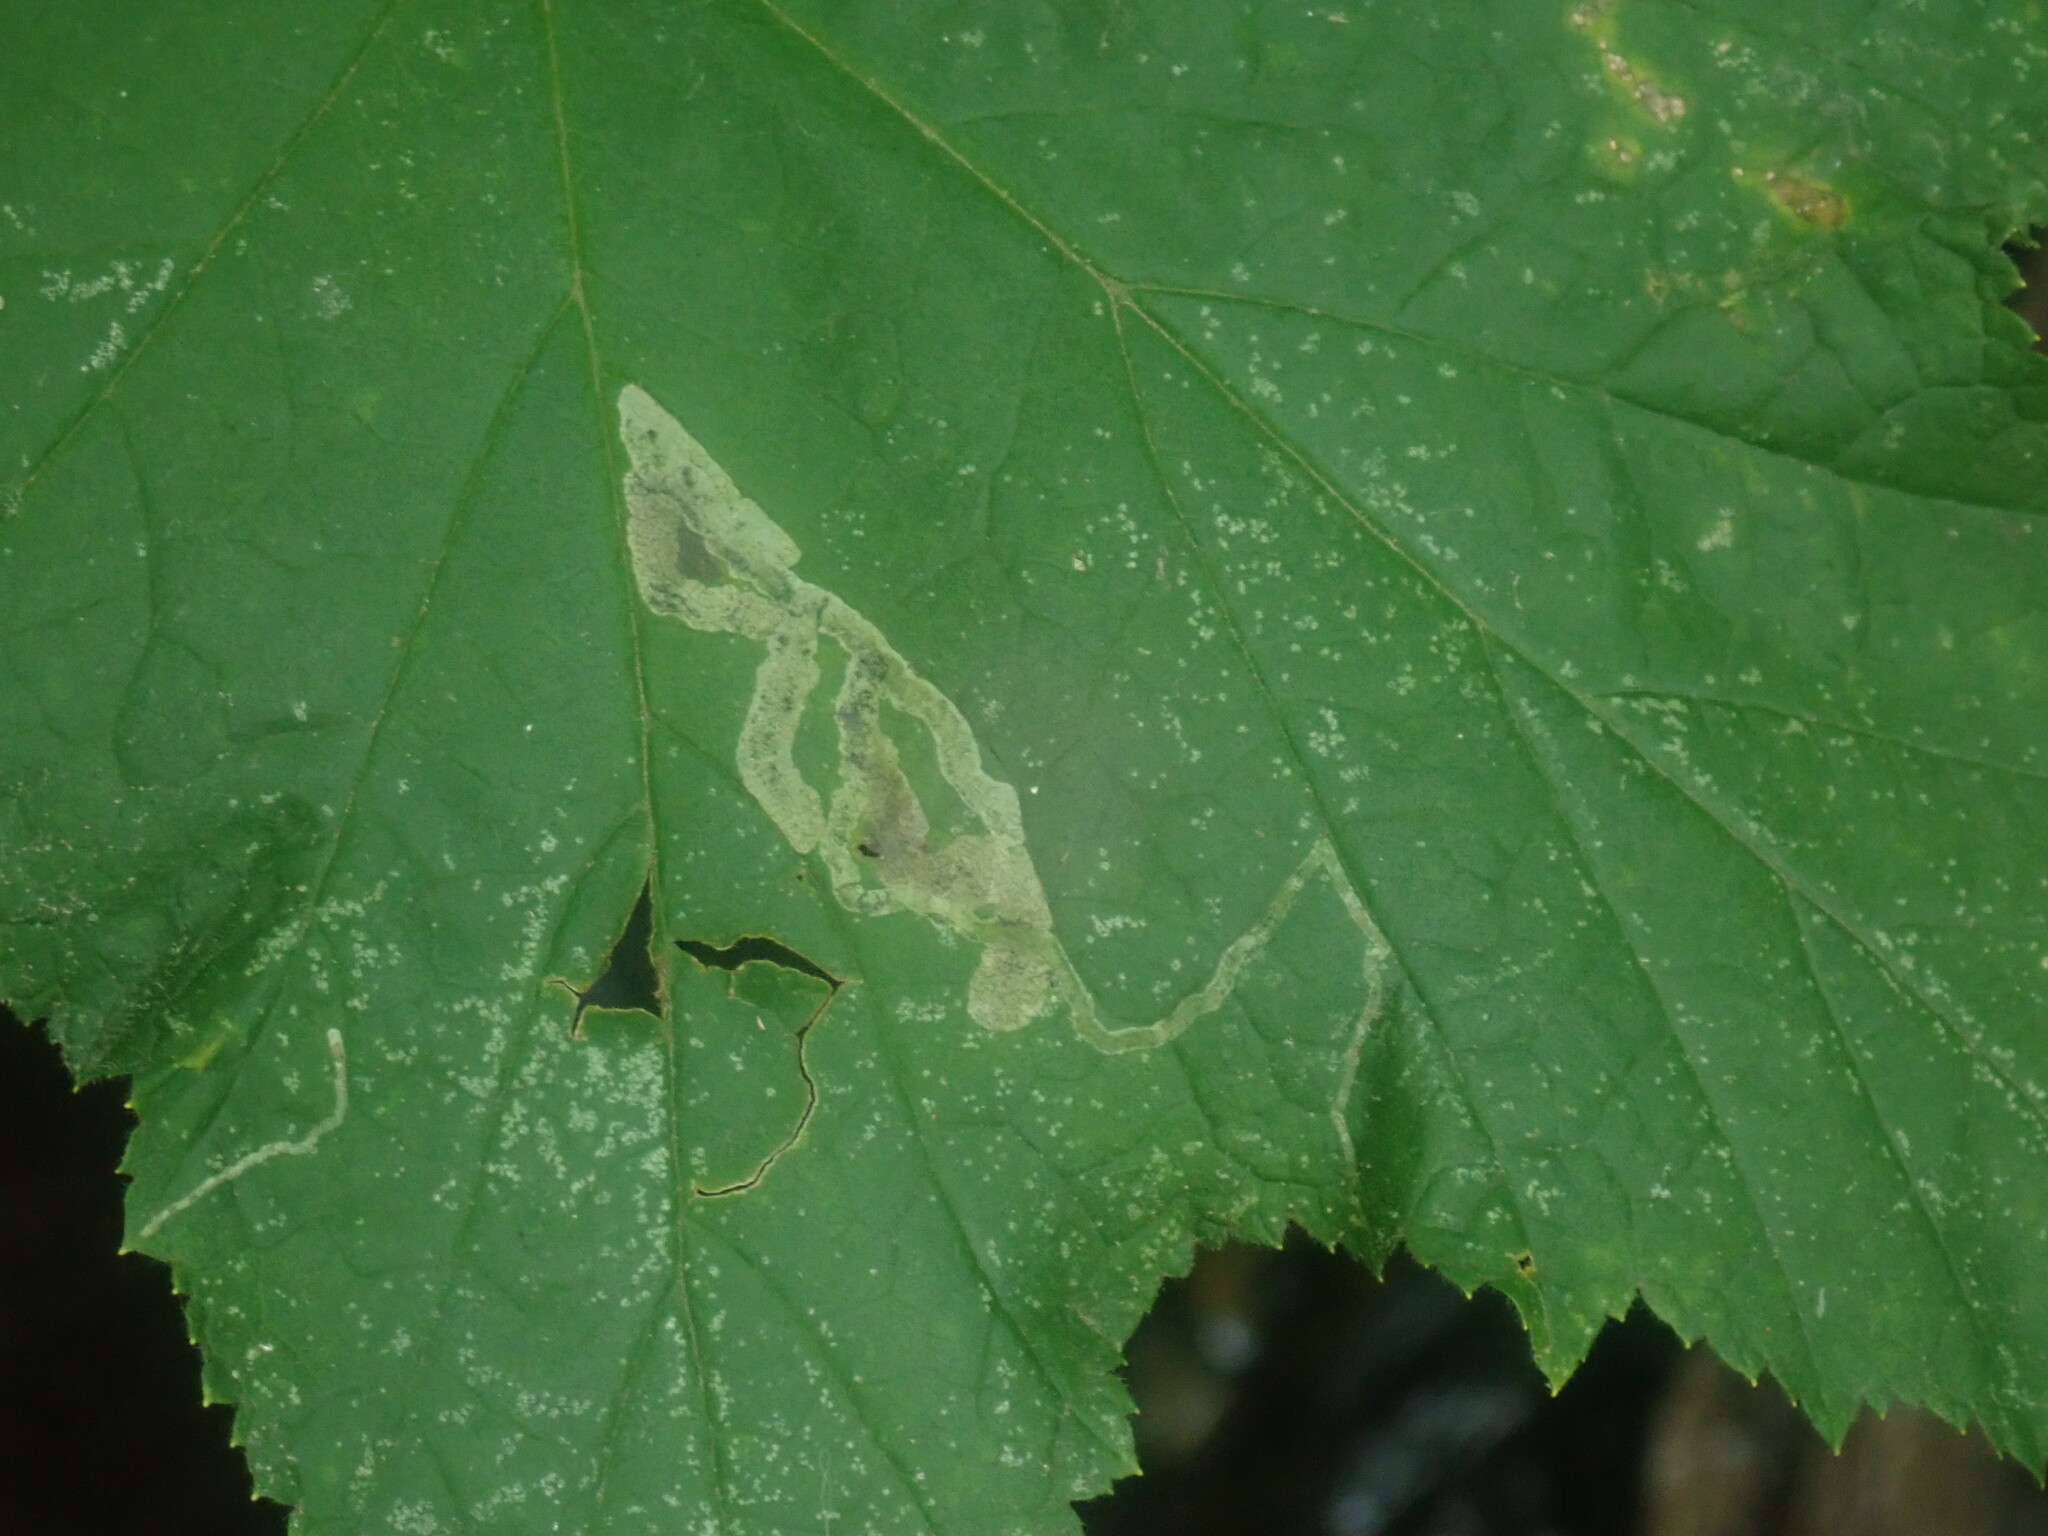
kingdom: Animalia
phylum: Arthropoda
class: Insecta
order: Diptera
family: Agromyzidae
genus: Agromyza
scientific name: Agromyza vockerothi
